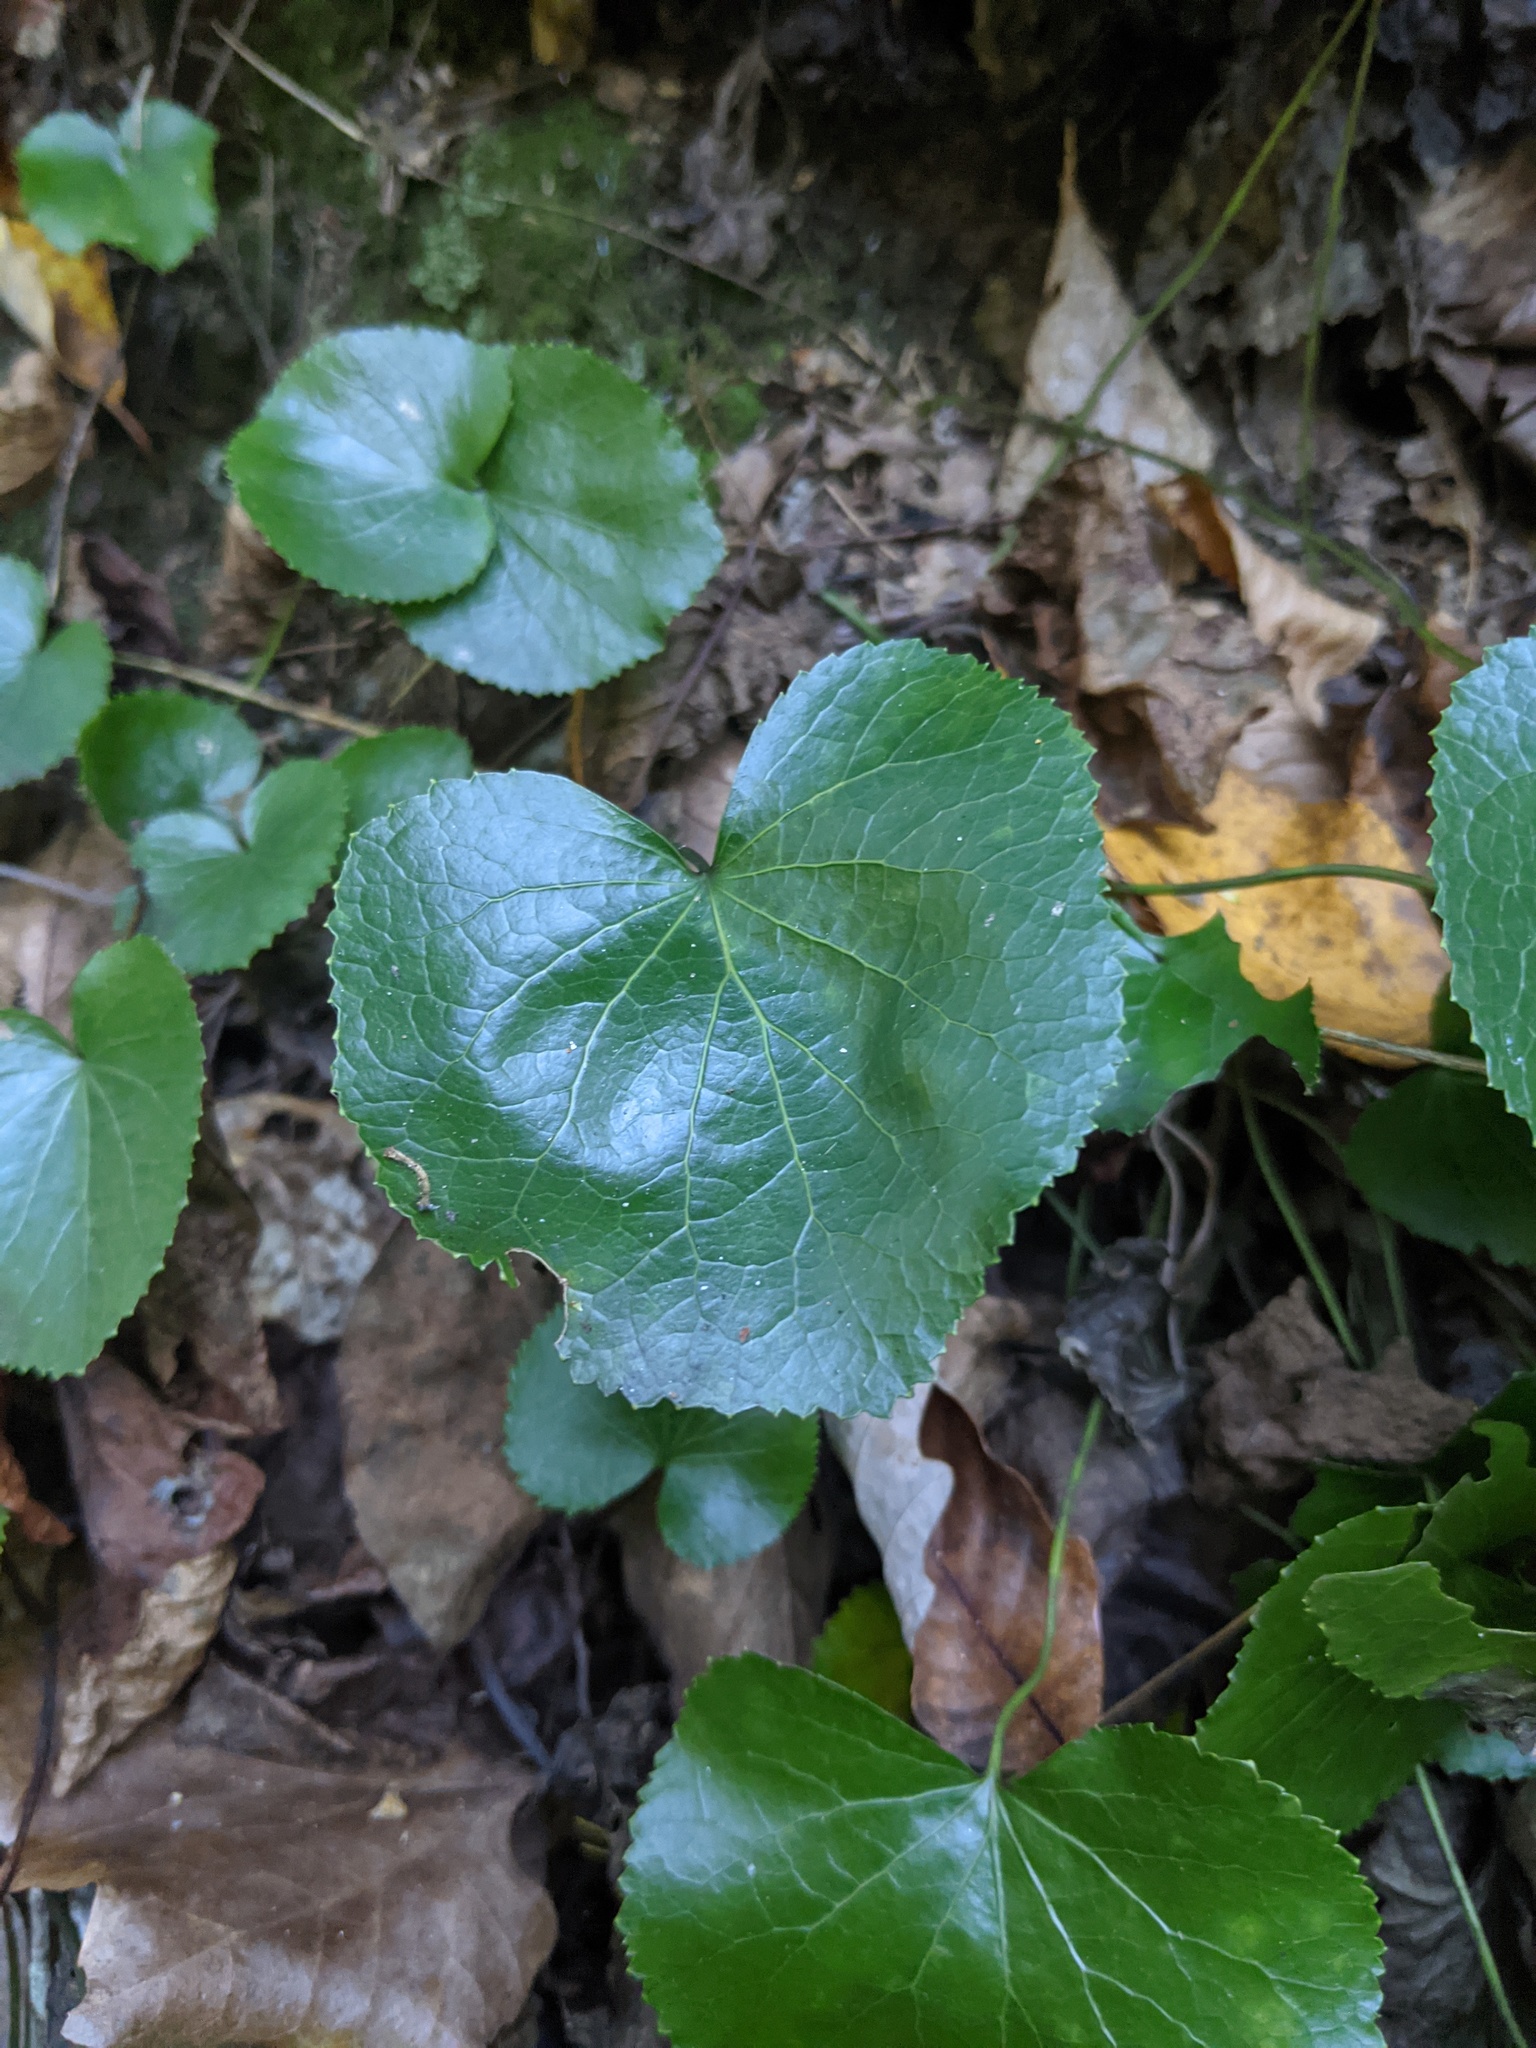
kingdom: Plantae
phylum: Tracheophyta
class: Magnoliopsida
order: Ericales
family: Diapensiaceae
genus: Galax
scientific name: Galax urceolata
